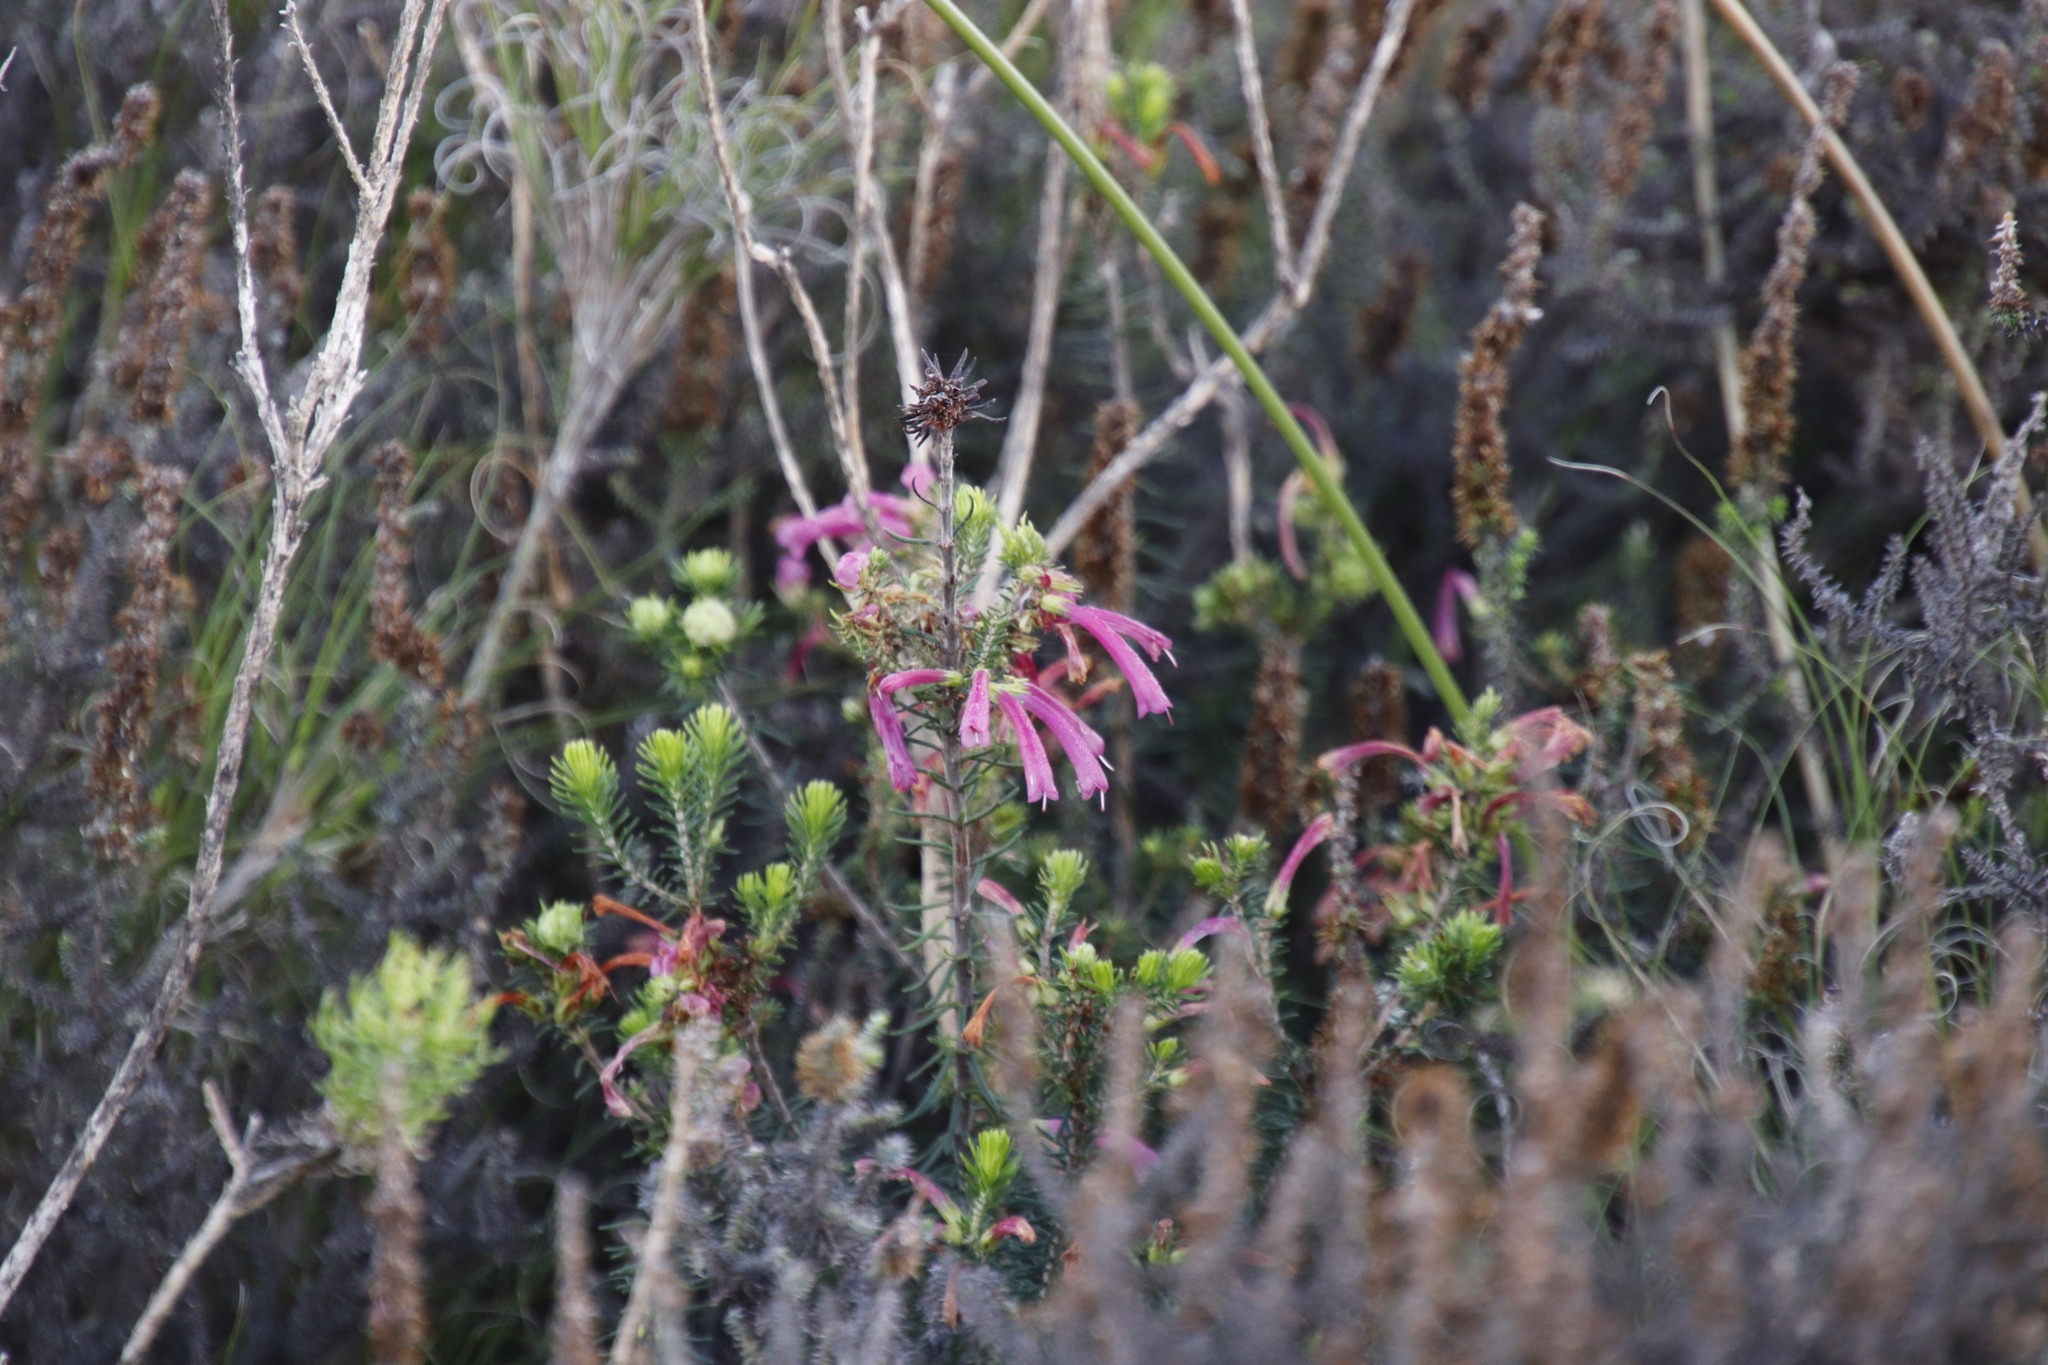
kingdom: Plantae
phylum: Tracheophyta
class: Magnoliopsida
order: Ericales
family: Ericaceae
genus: Erica
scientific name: Erica abietina
